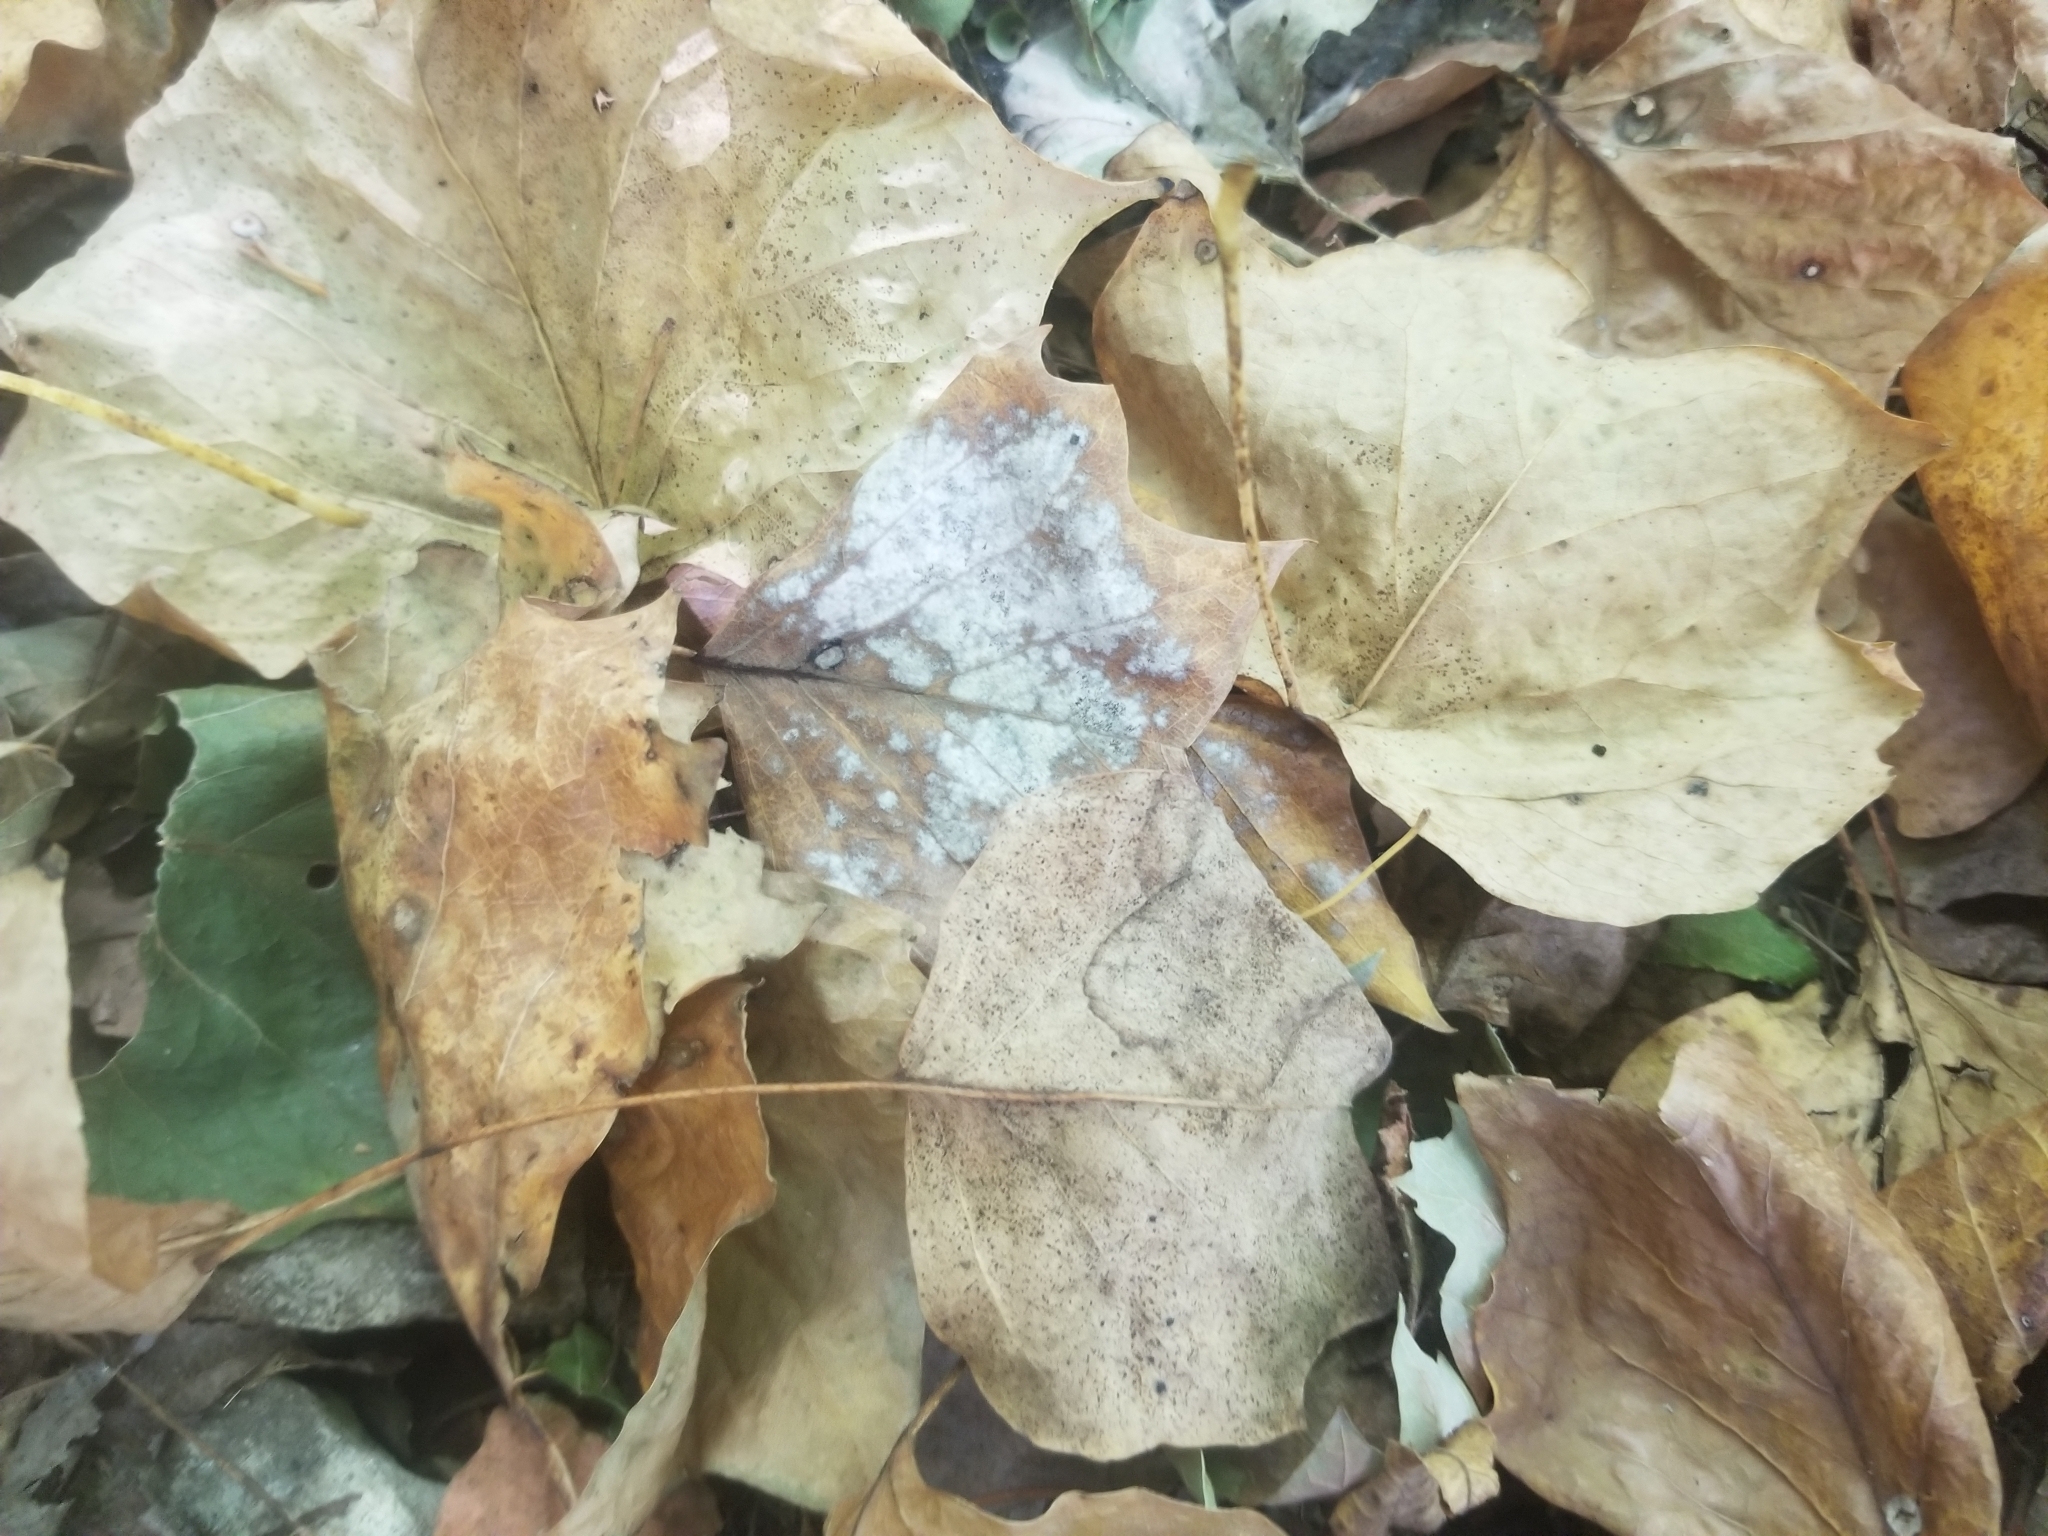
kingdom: Fungi
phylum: Ascomycota
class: Leotiomycetes
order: Helotiales
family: Erysiphaceae
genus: Erysiphe
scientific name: Erysiphe liriodendri
